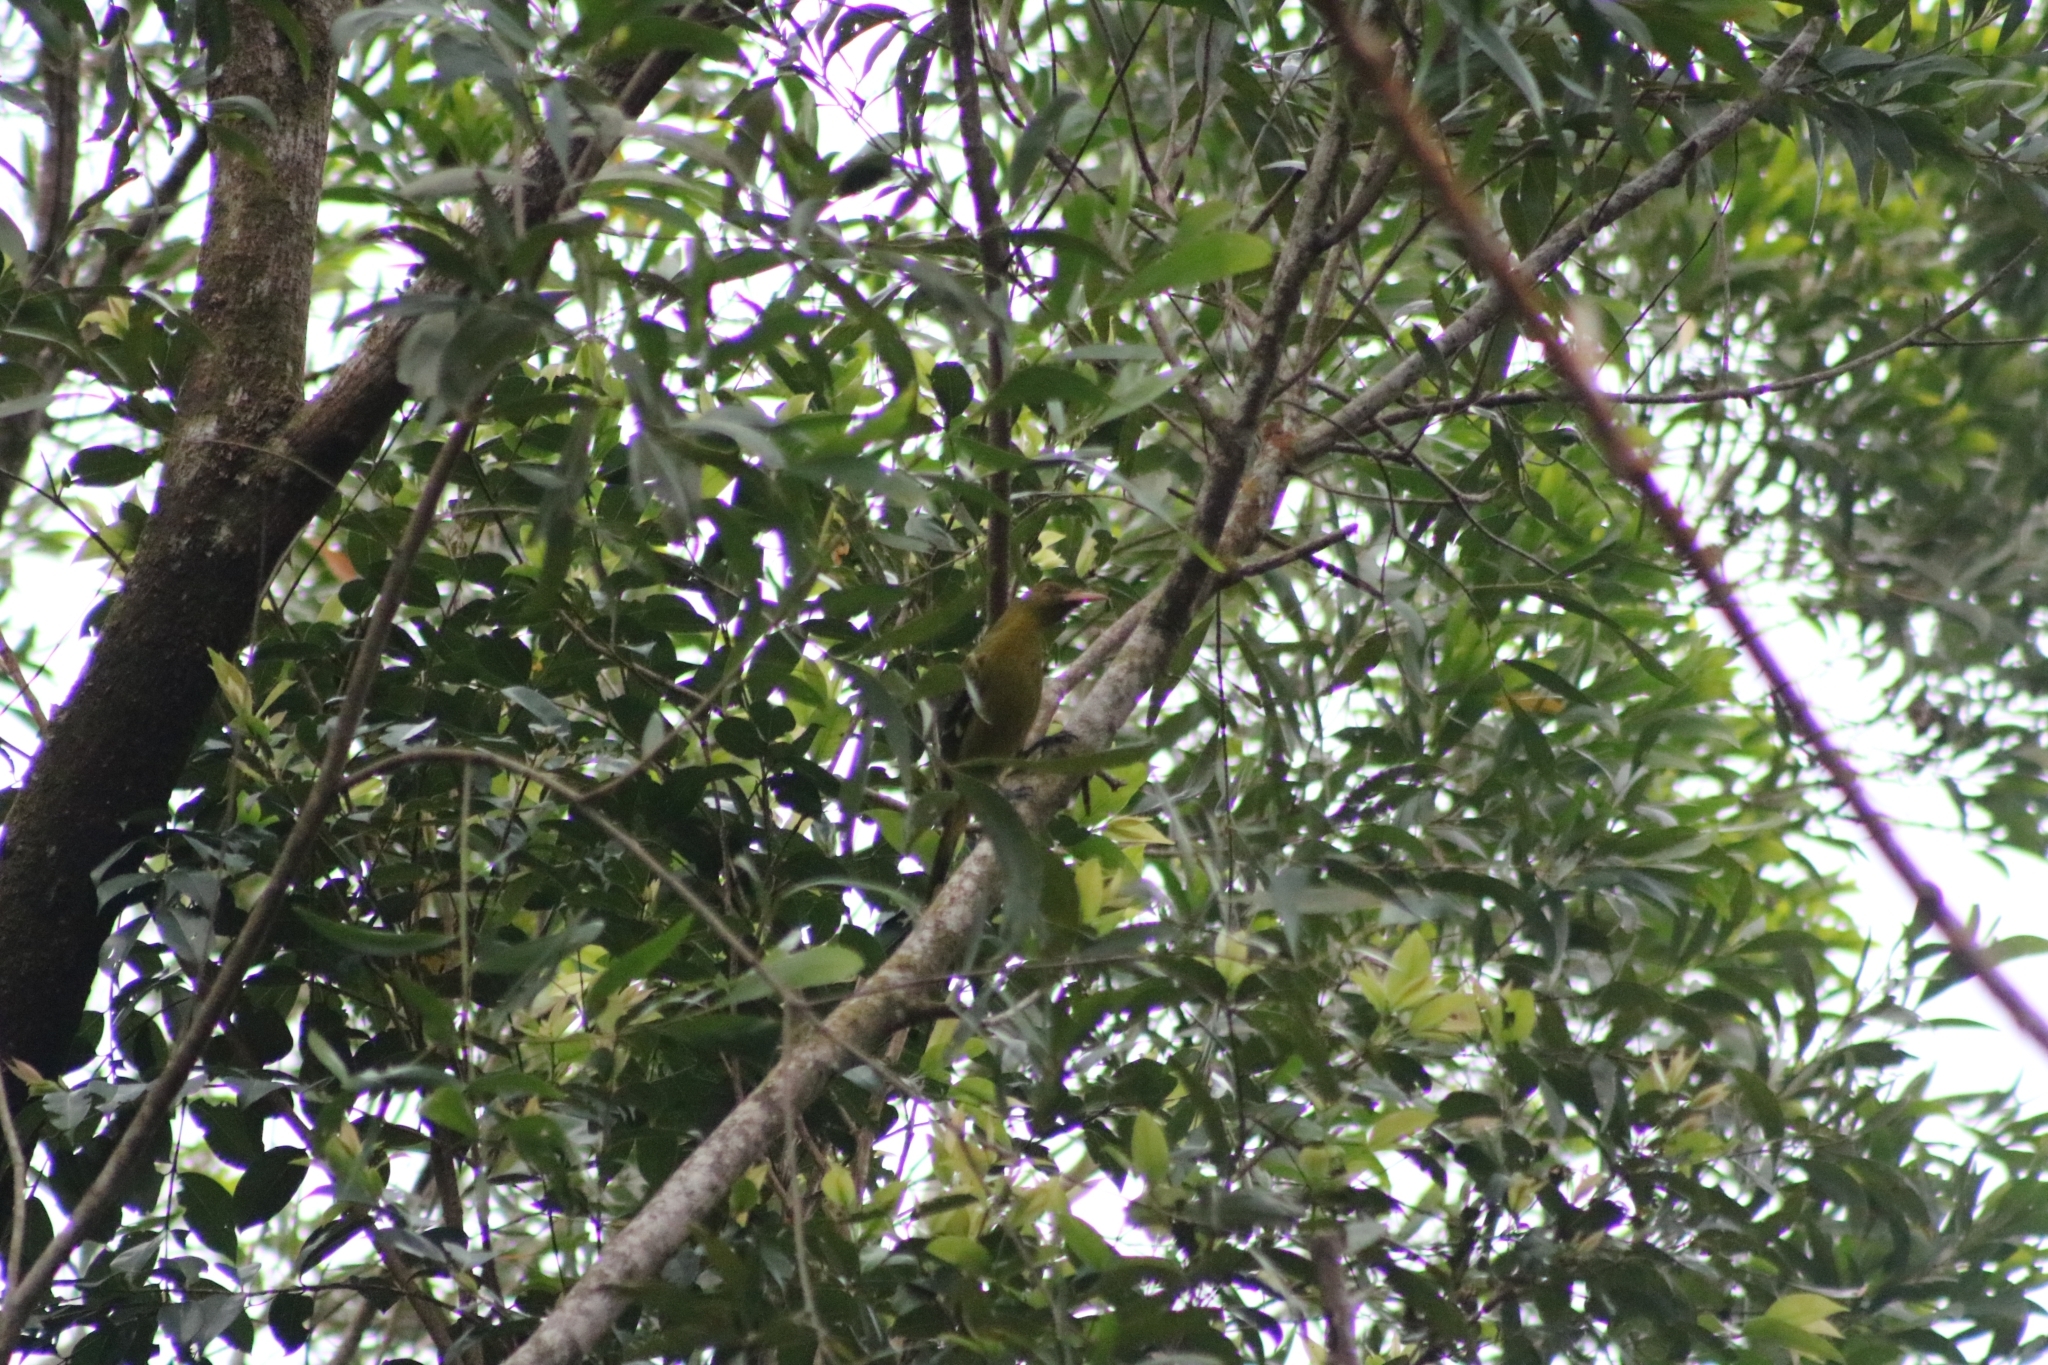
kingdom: Animalia
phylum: Chordata
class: Aves
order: Passeriformes
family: Oriolidae
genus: Oriolus
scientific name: Oriolus flavocinctus
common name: Green oriole
